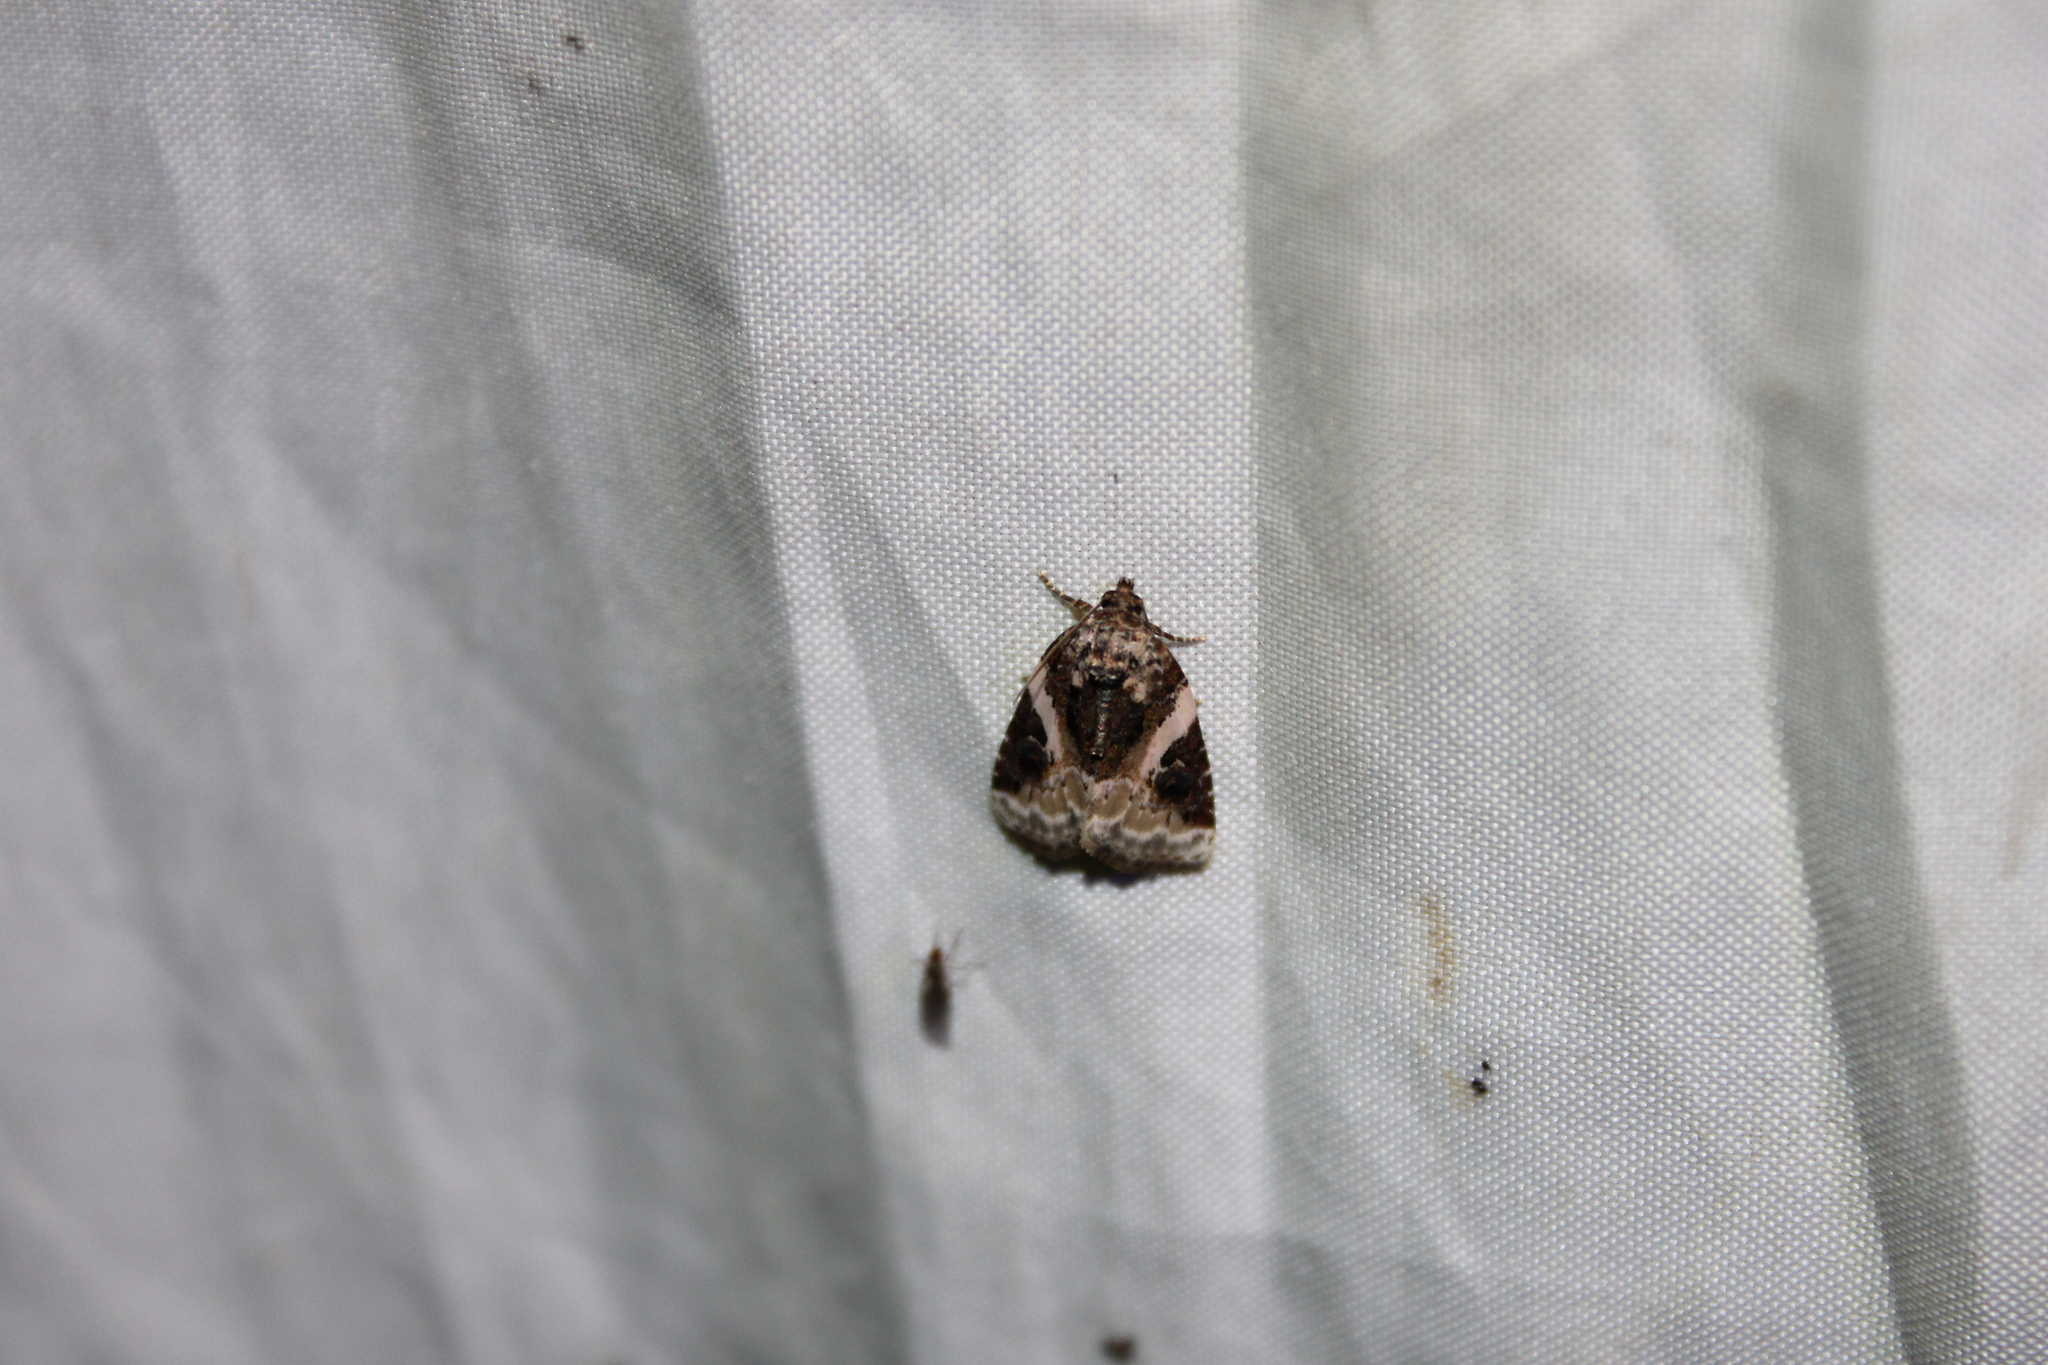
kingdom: Animalia
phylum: Arthropoda
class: Insecta
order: Lepidoptera
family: Noctuidae
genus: Pseudeustrotia
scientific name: Pseudeustrotia carneola
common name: Pink-barred lithacodia moth
